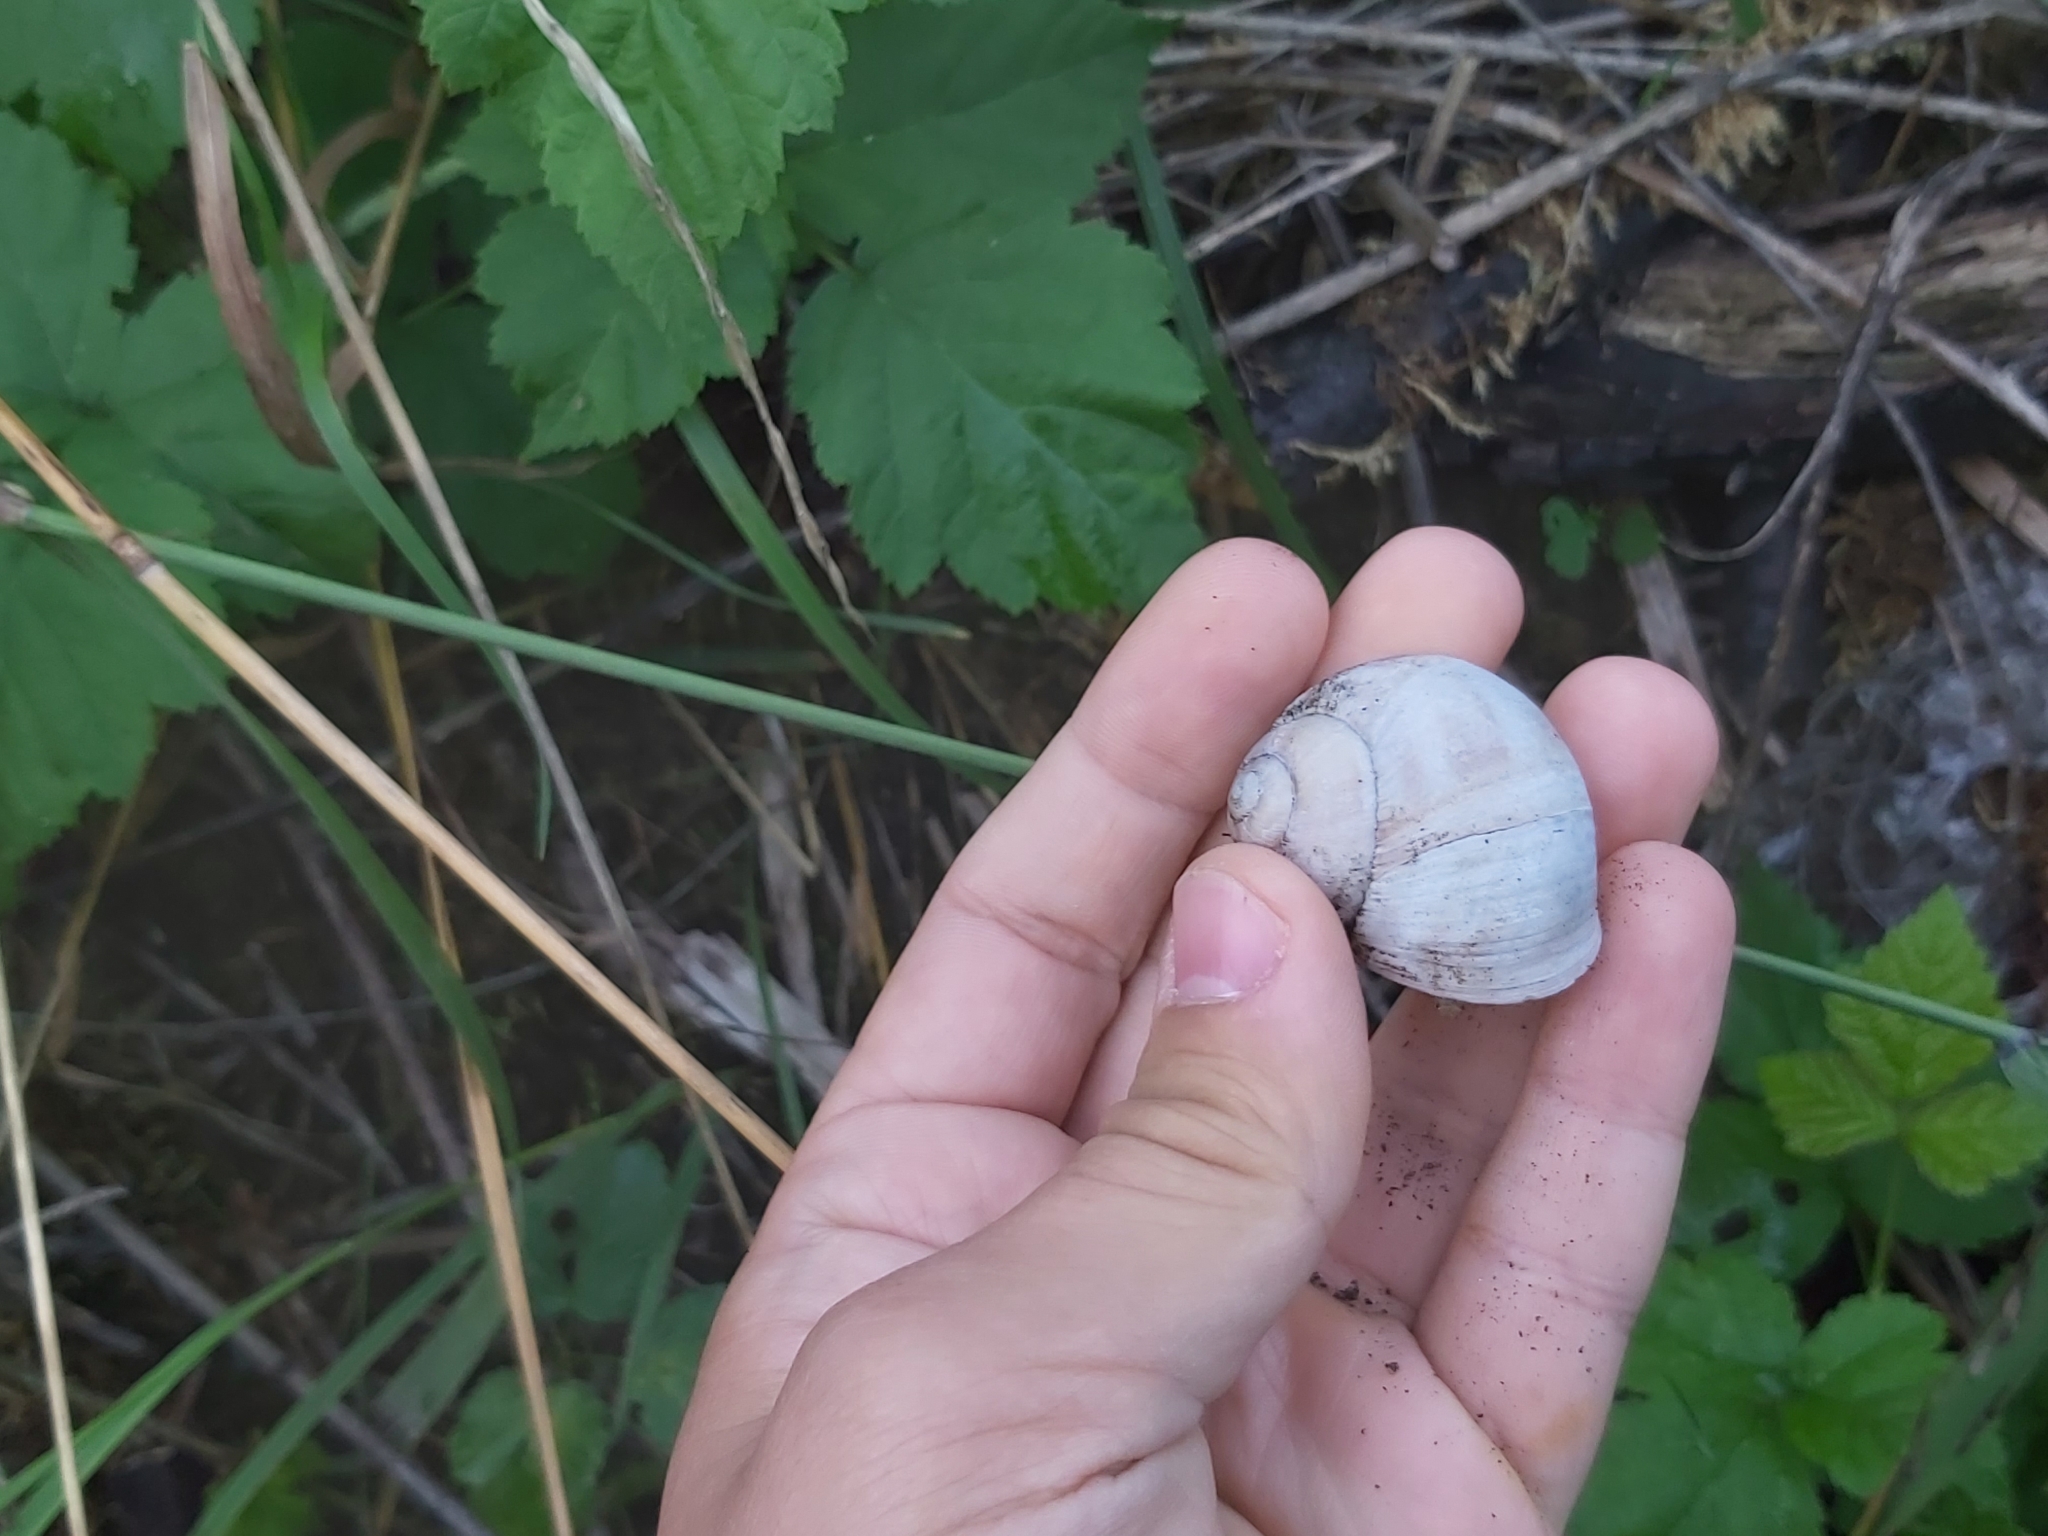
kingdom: Animalia
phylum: Mollusca
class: Gastropoda
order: Stylommatophora
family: Helicidae
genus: Helix
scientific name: Helix pomatia
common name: Roman snail
